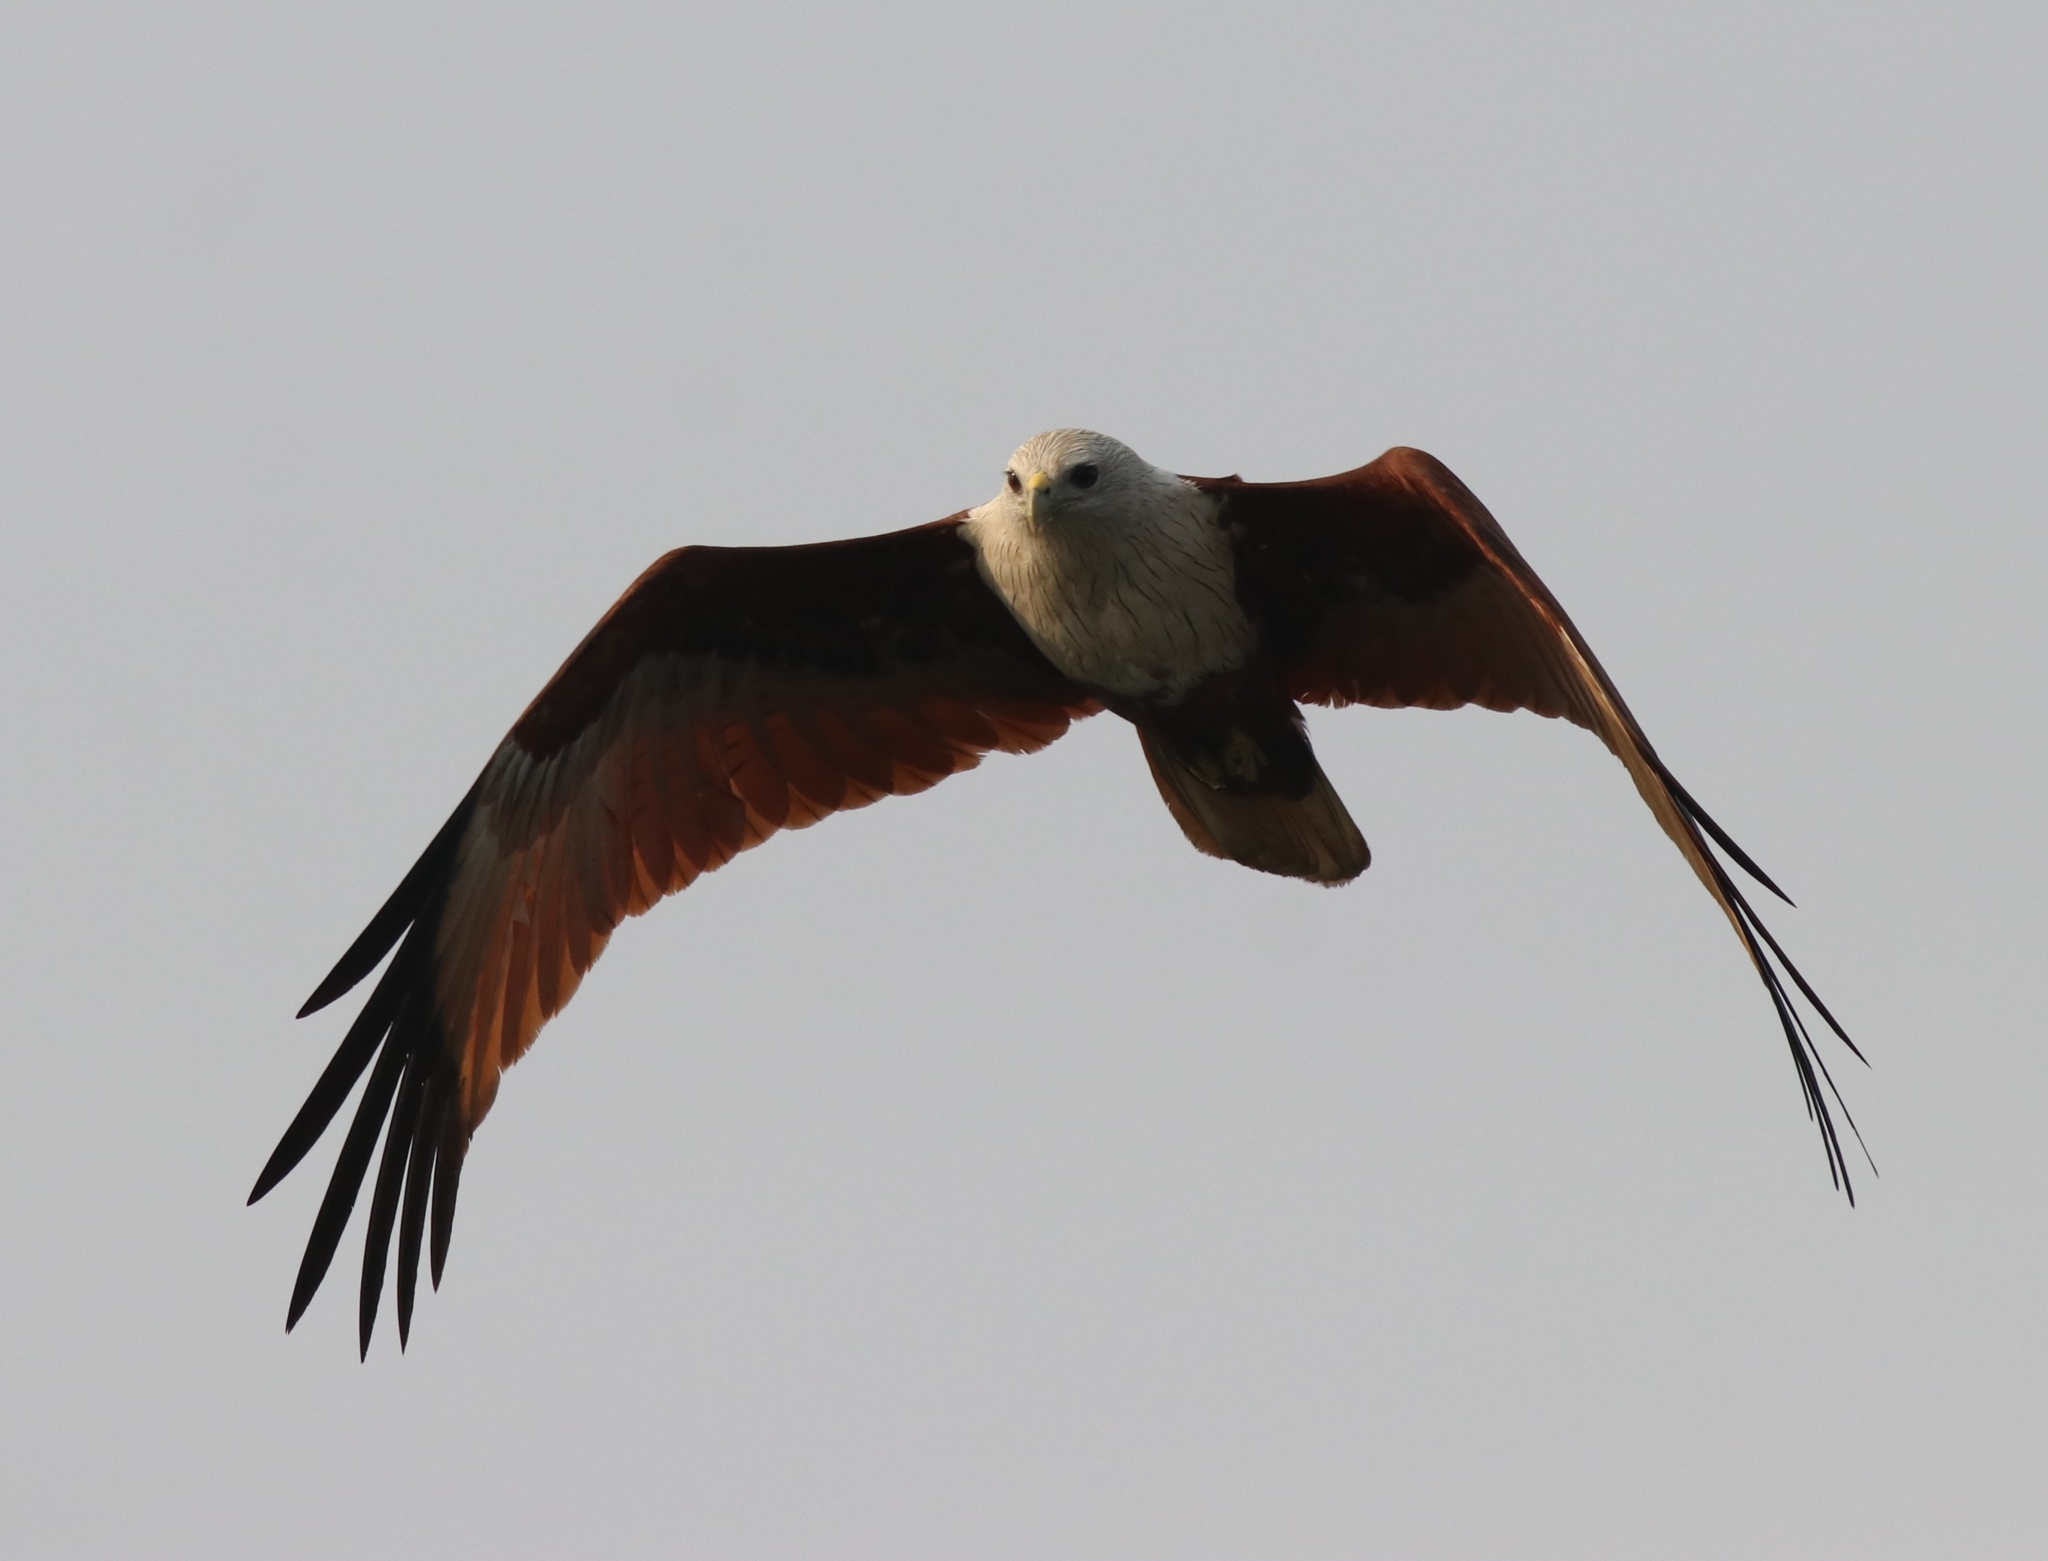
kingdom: Animalia
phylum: Chordata
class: Aves
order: Accipitriformes
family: Accipitridae
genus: Haliastur
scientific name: Haliastur indus
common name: Brahminy kite
